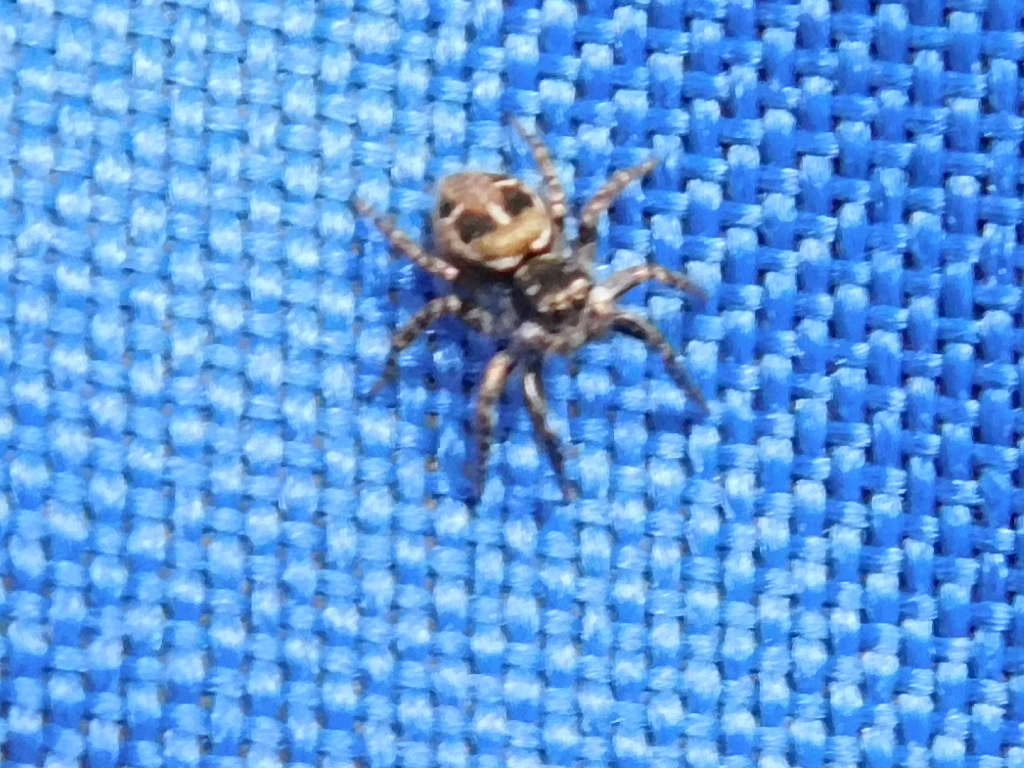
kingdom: Animalia
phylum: Arthropoda
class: Arachnida
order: Araneae
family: Salticidae
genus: Anasaitis
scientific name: Anasaitis canosa
